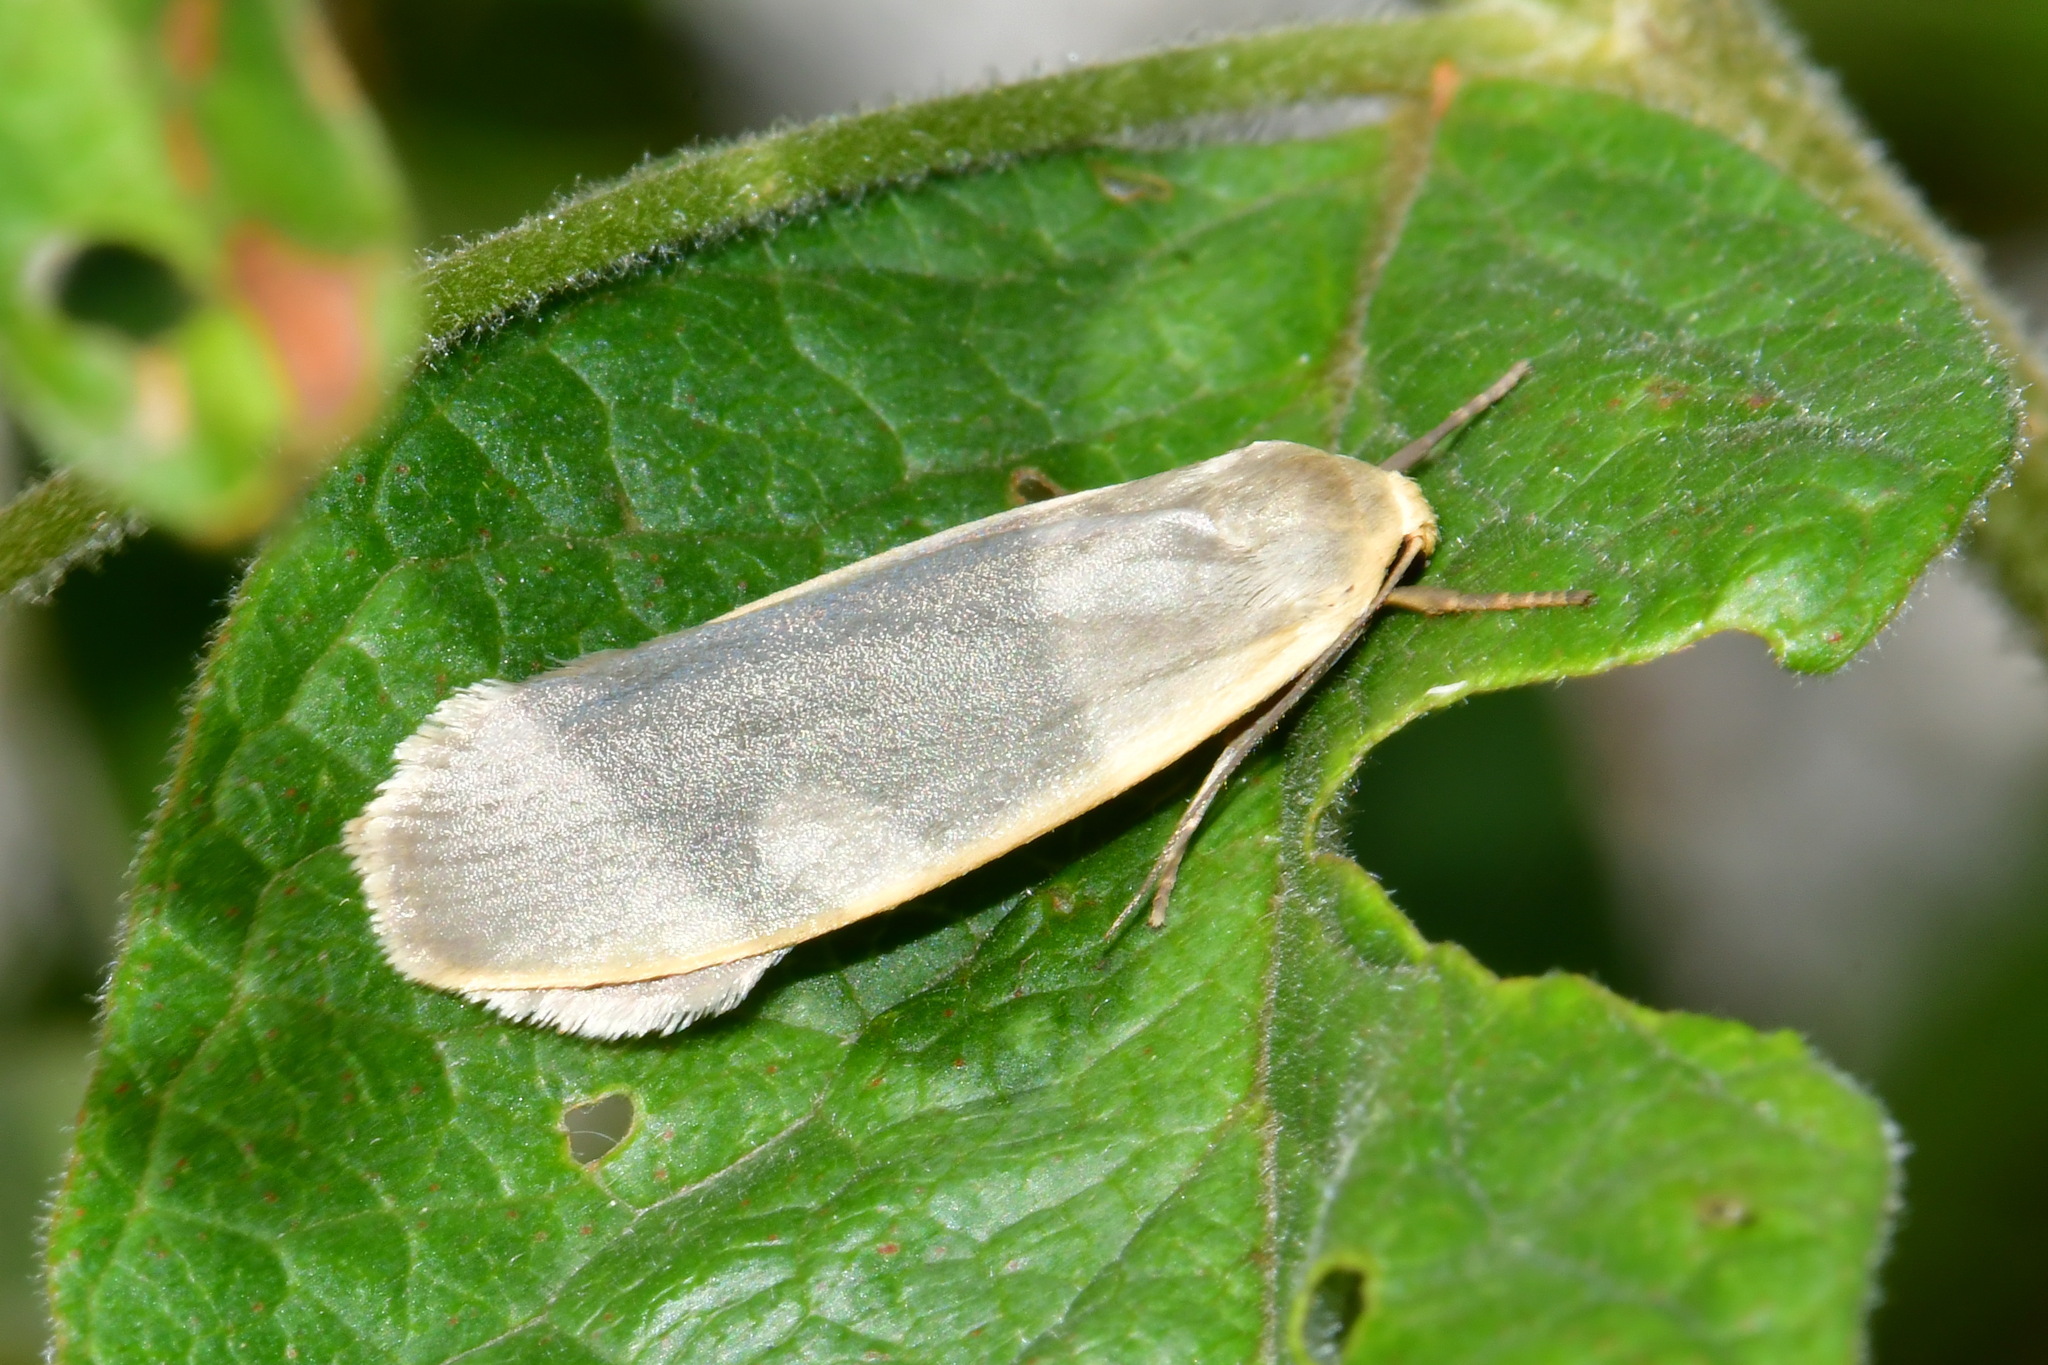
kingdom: Animalia
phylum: Arthropoda
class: Insecta
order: Lepidoptera
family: Erebidae
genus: Collita
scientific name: Collita griseola
